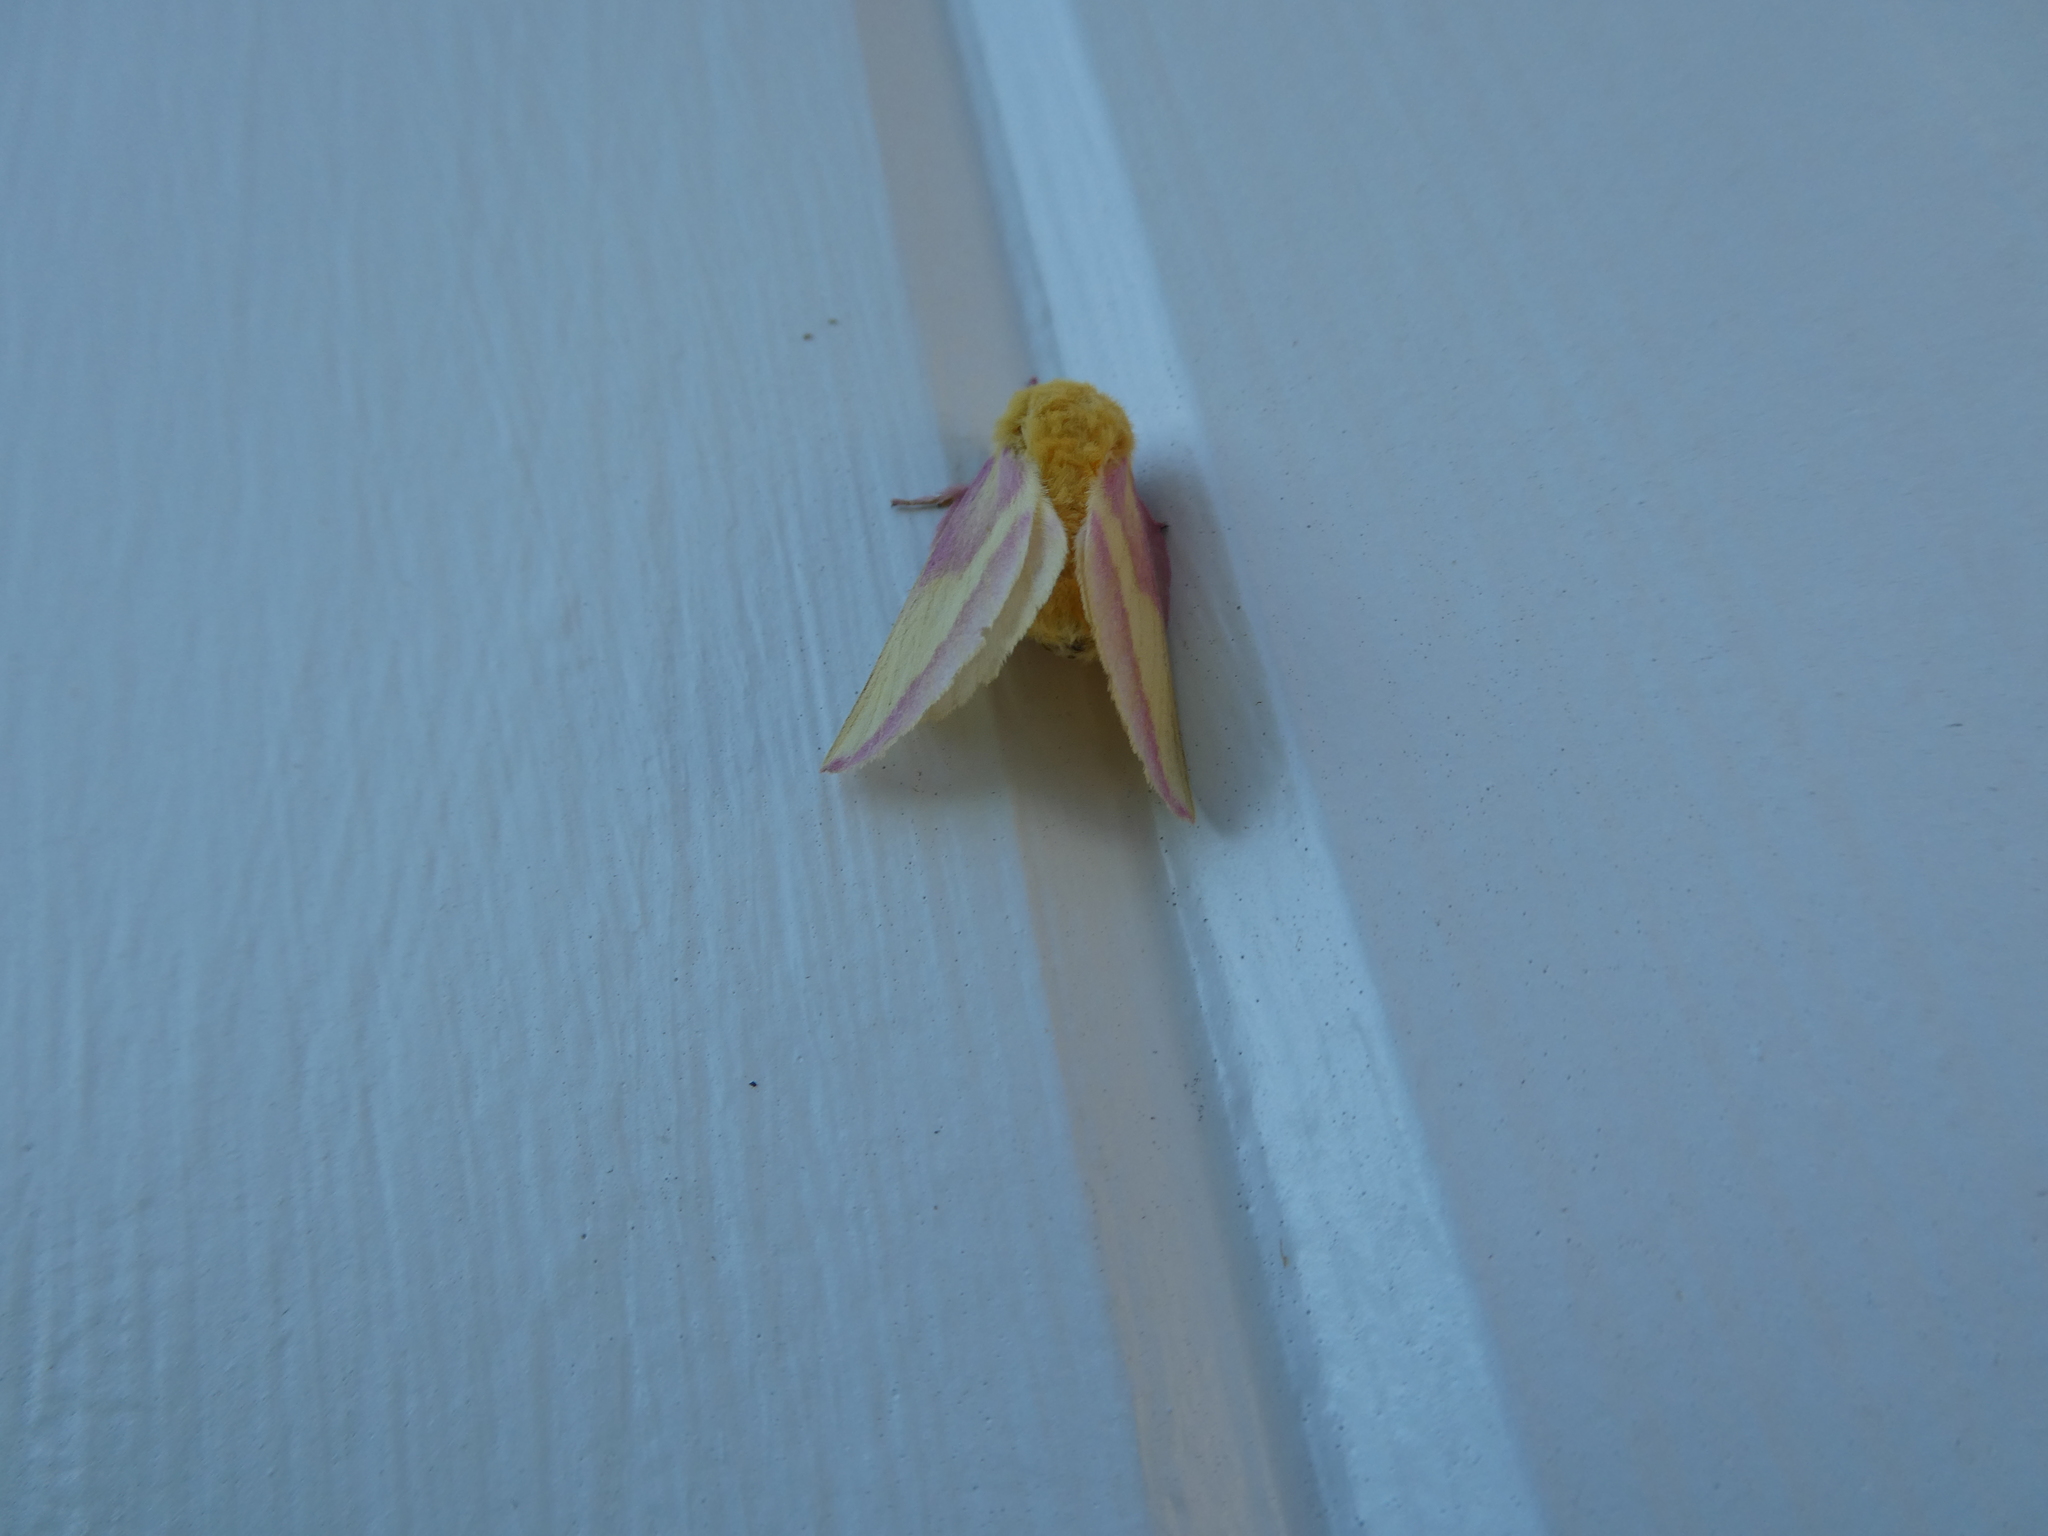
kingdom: Animalia
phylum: Arthropoda
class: Insecta
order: Lepidoptera
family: Saturniidae
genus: Dryocampa
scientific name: Dryocampa rubicunda
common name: Rosy maple moth
